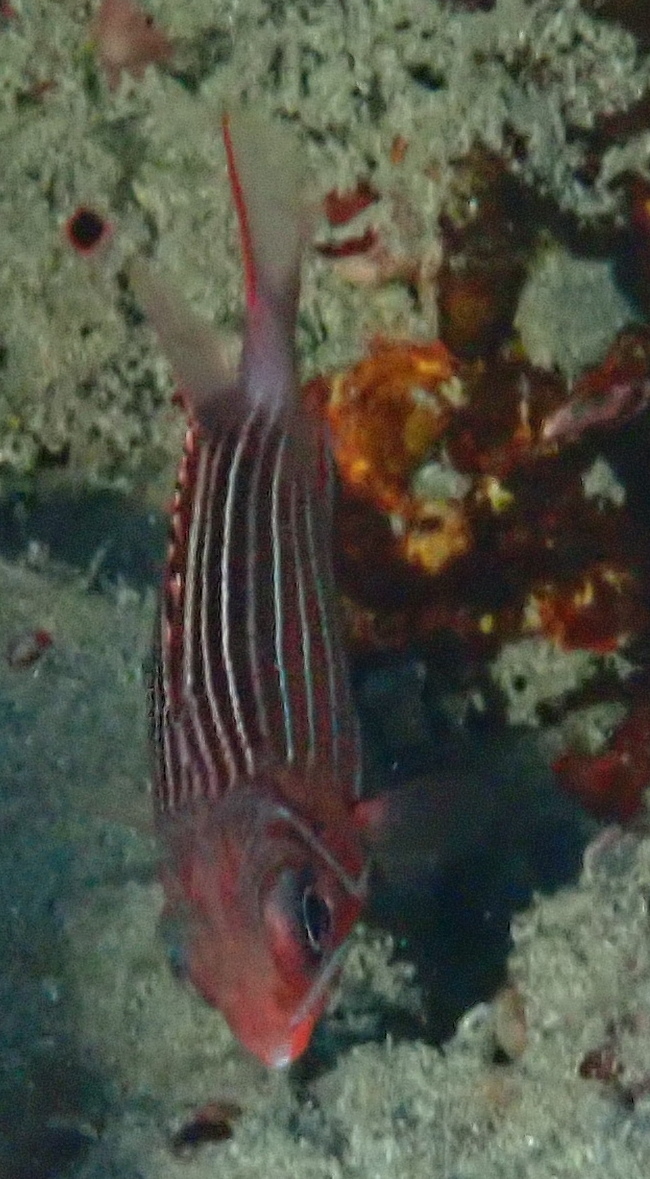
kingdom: Animalia
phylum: Chordata
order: Beryciformes
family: Holocentridae
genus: Sargocentron
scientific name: Sargocentron diadema
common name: Crown squirrelfish
